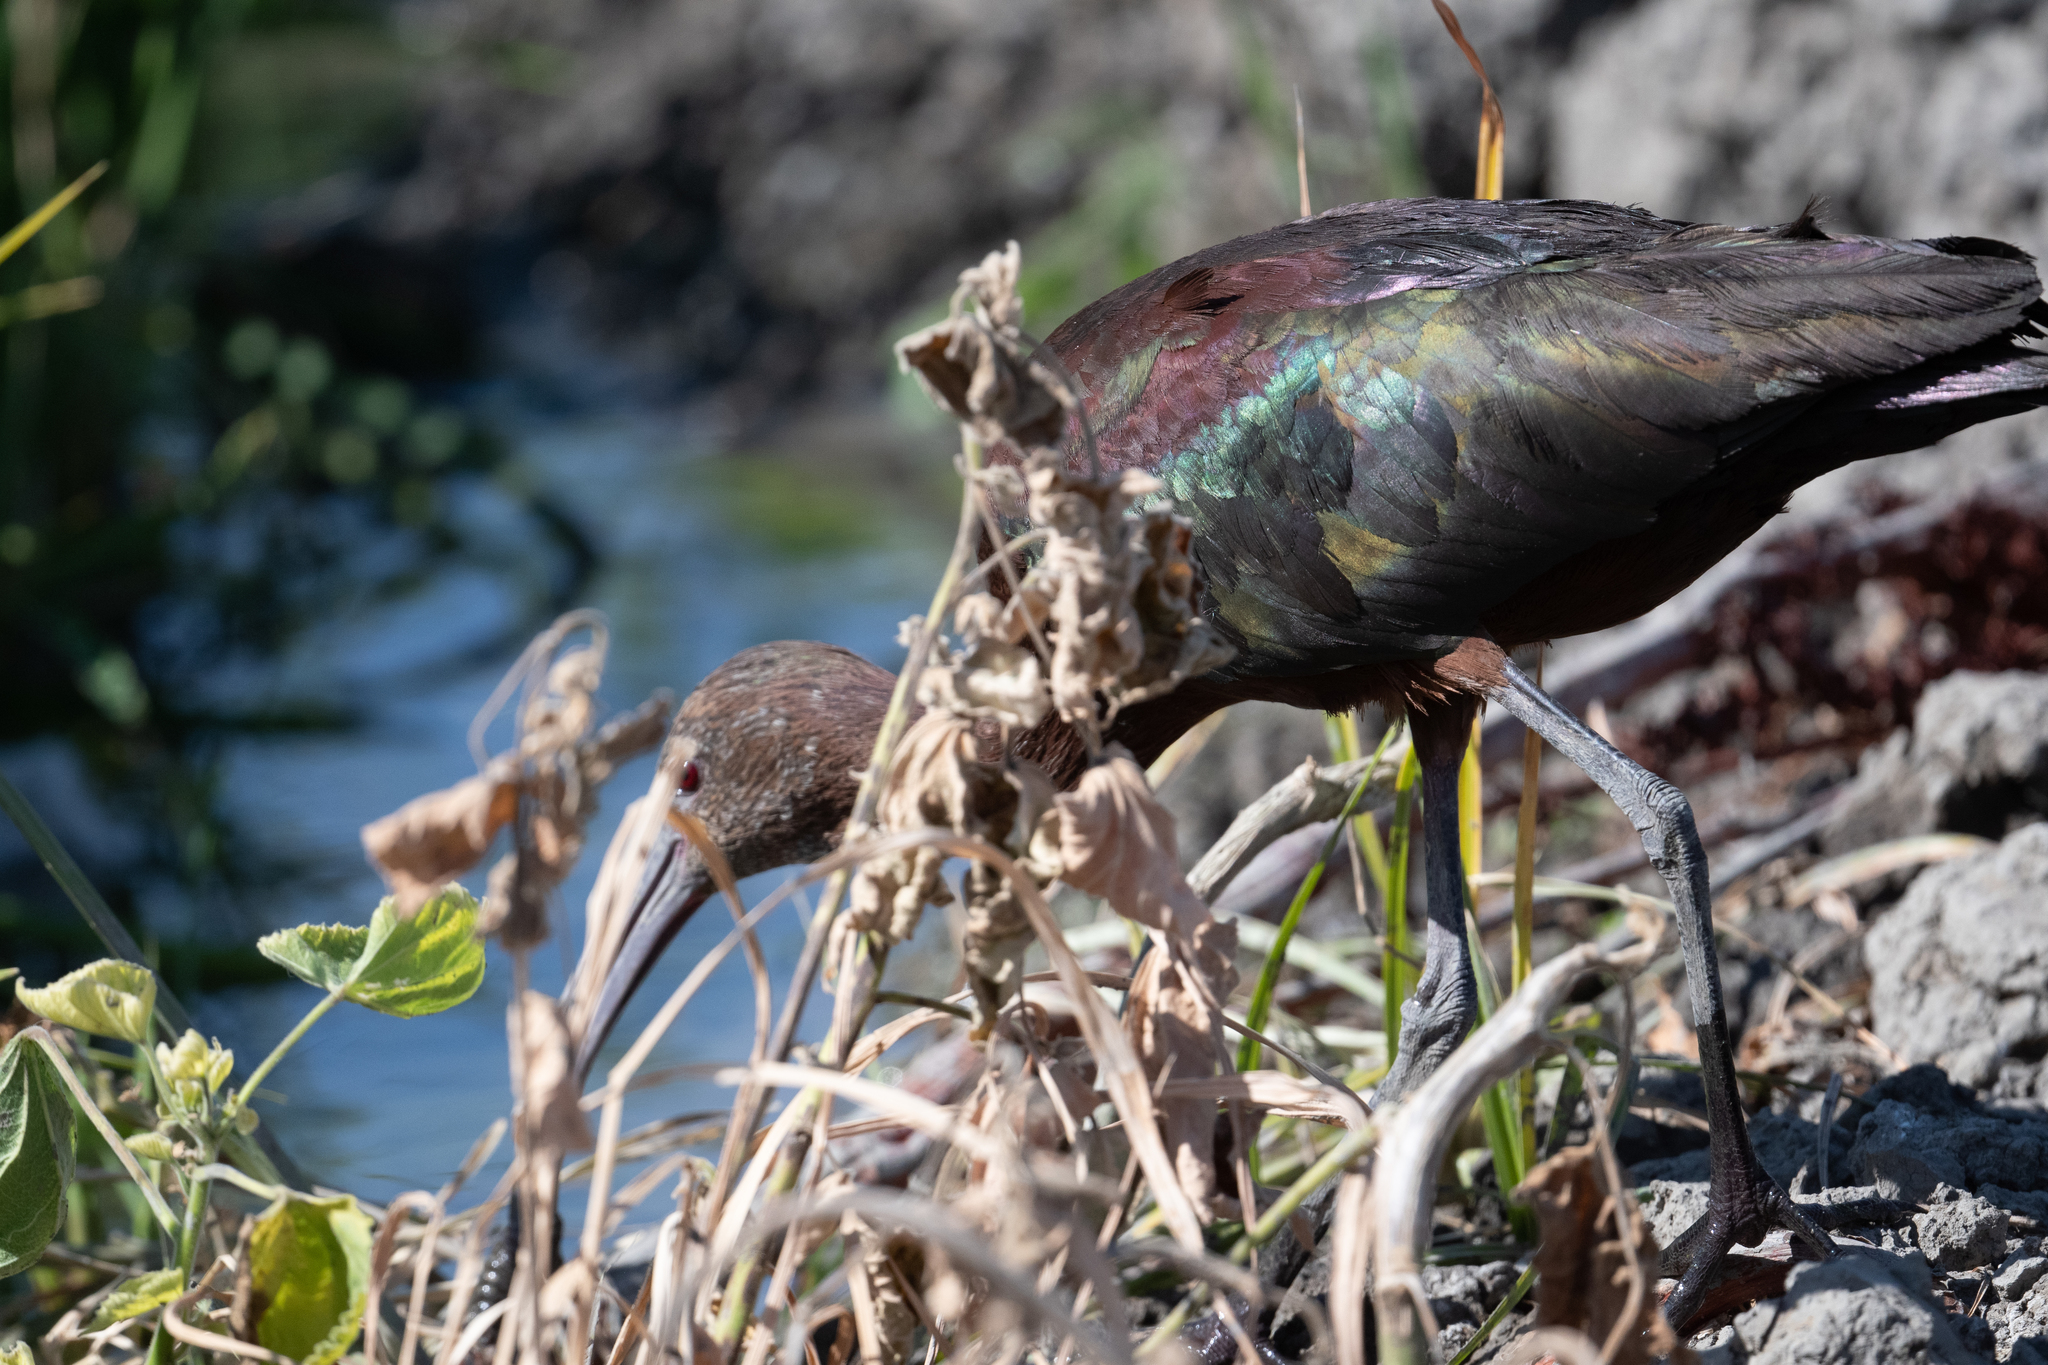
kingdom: Animalia
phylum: Chordata
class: Aves
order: Pelecaniformes
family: Threskiornithidae
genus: Plegadis
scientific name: Plegadis chihi
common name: White-faced ibis
